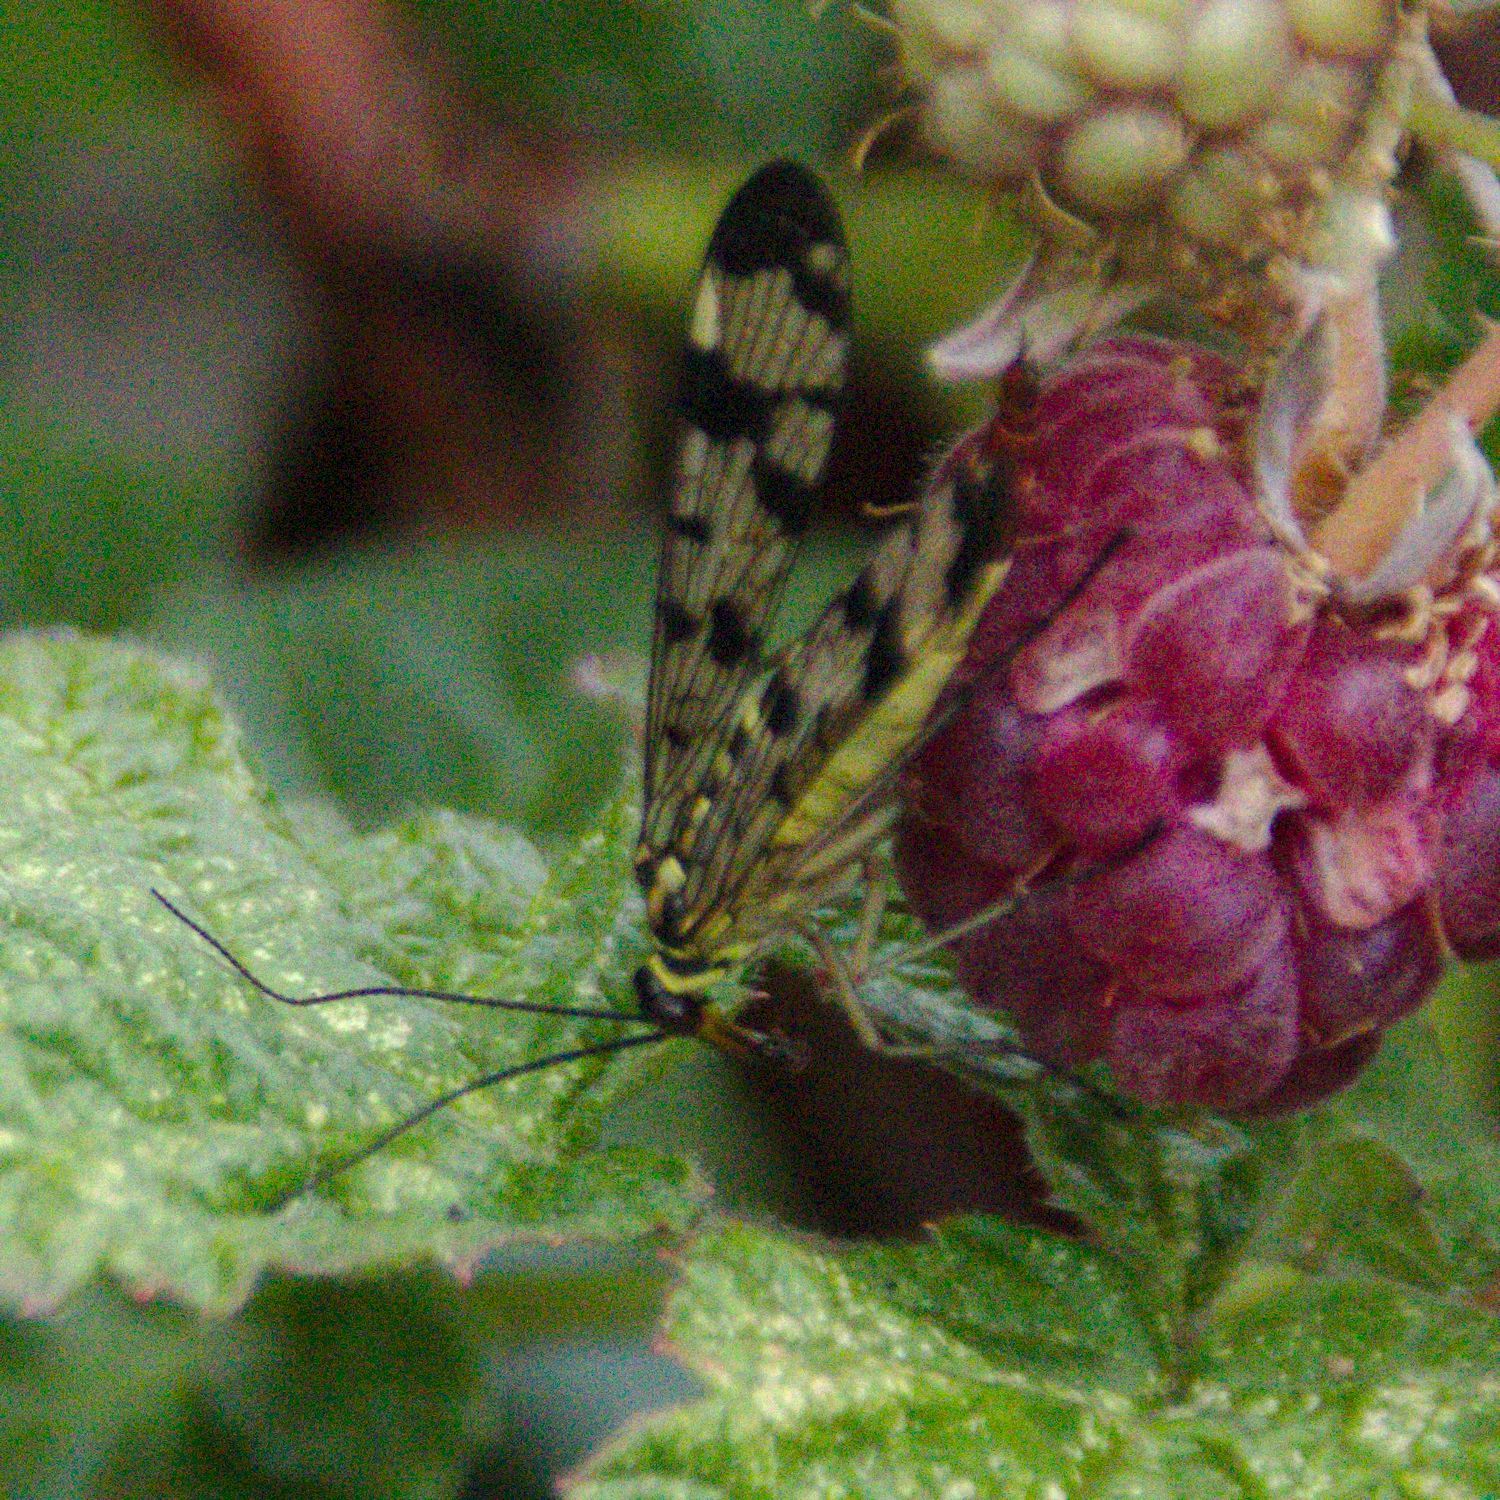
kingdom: Animalia
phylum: Arthropoda
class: Insecta
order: Mecoptera
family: Panorpidae
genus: Panorpa
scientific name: Panorpa communis
